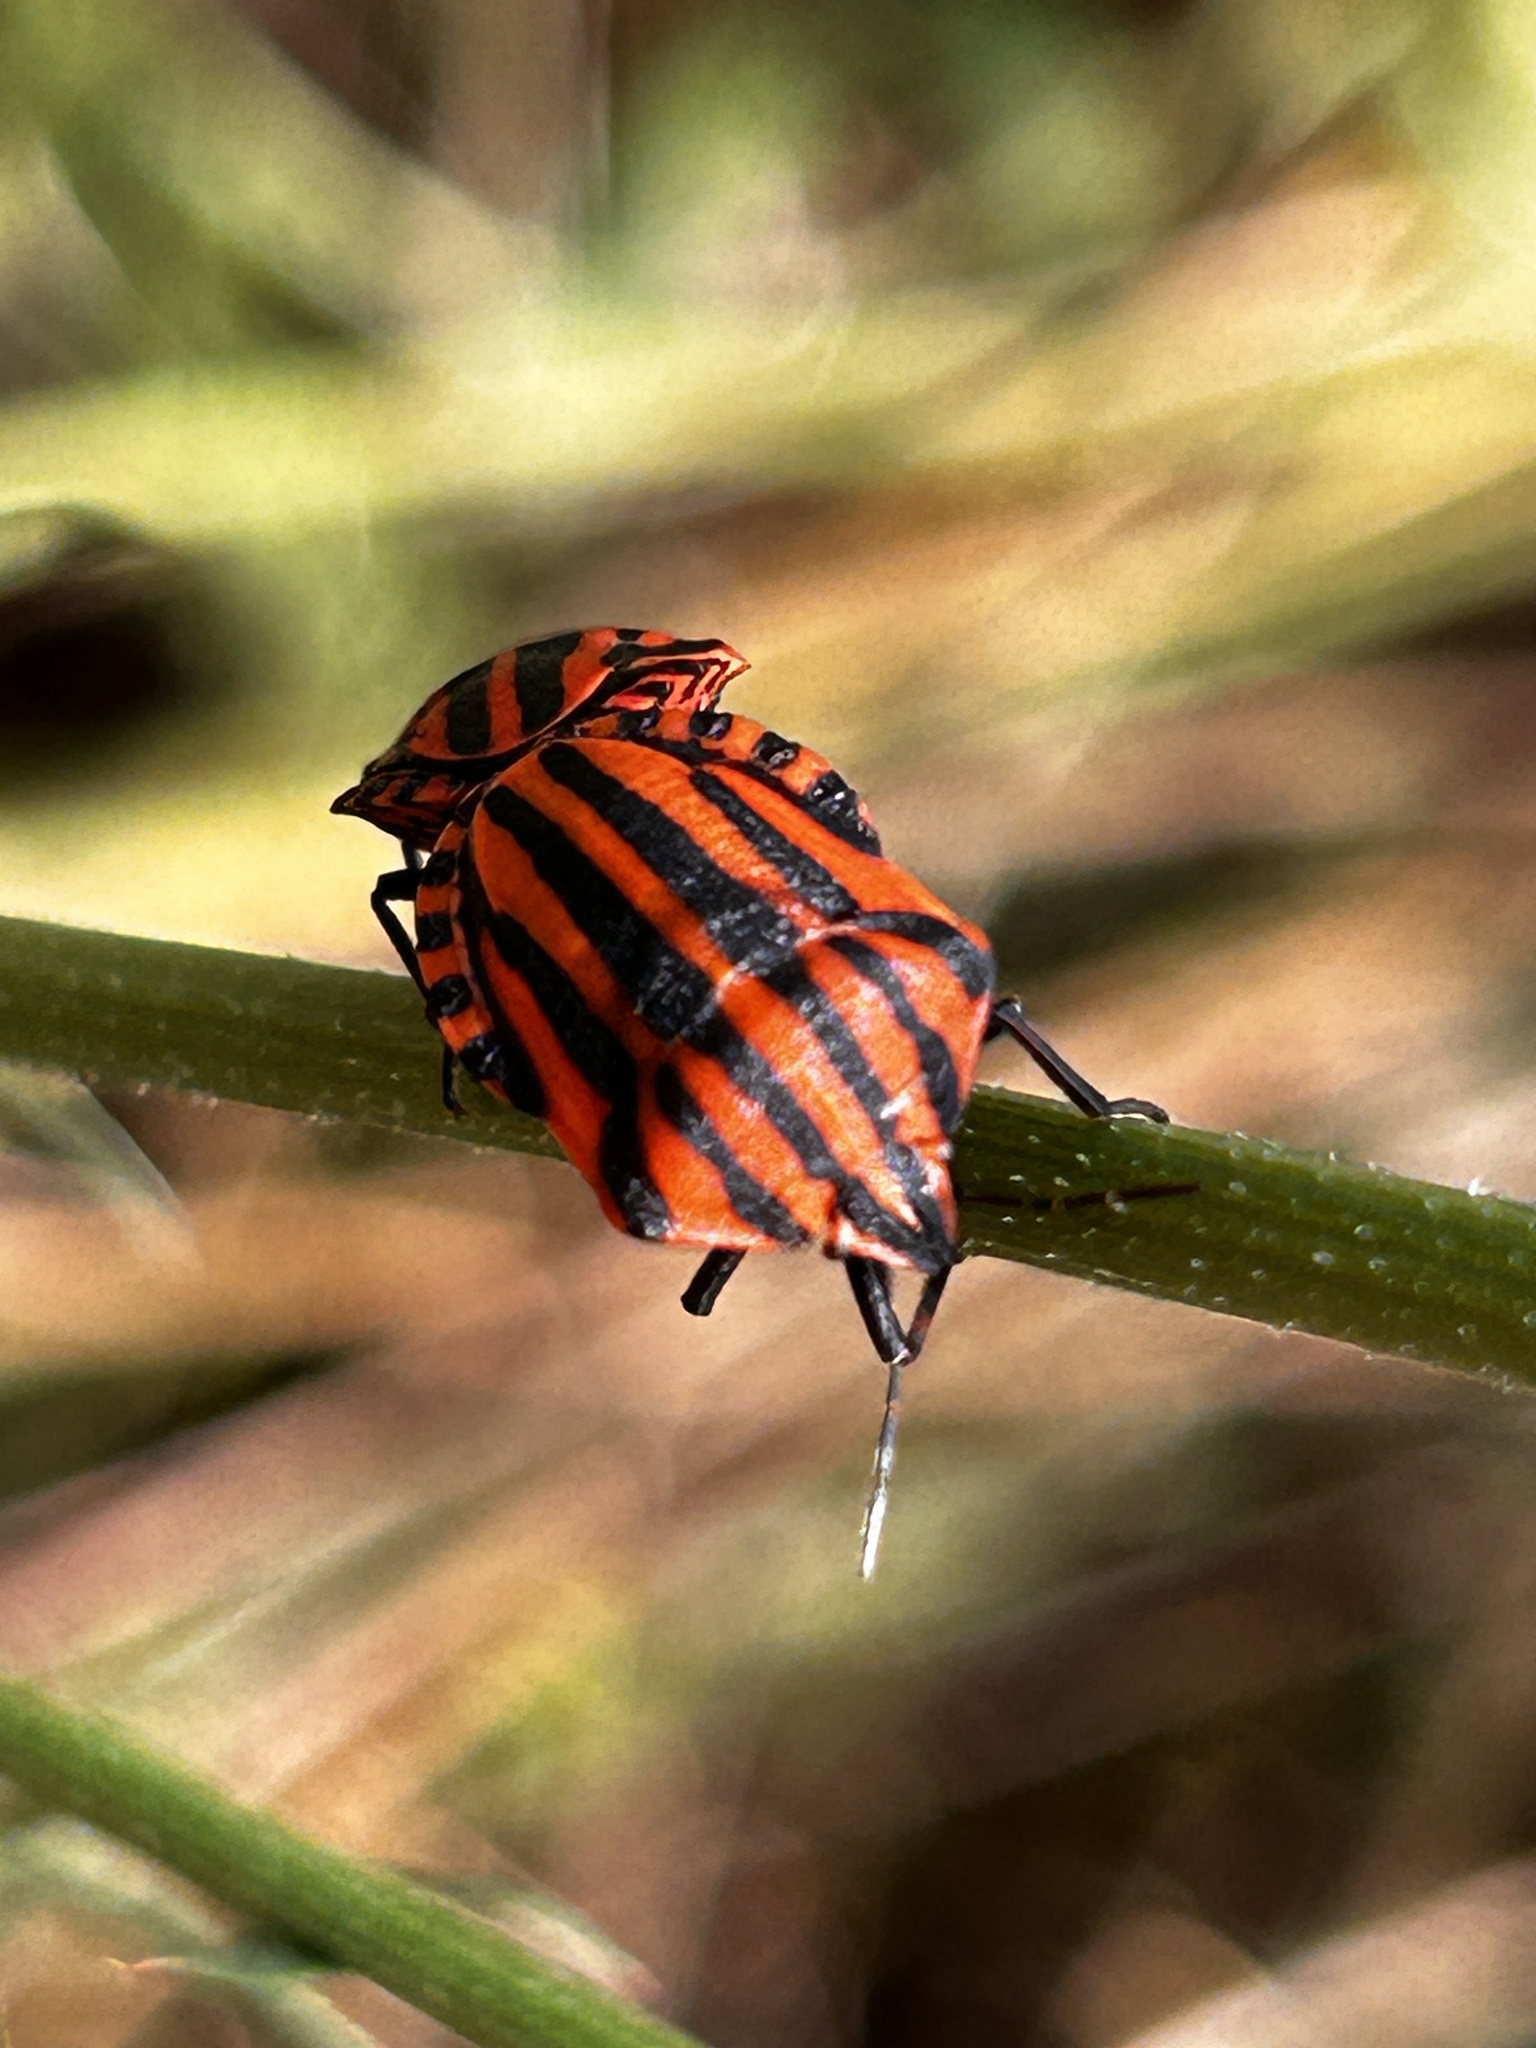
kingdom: Animalia
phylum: Arthropoda
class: Insecta
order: Hemiptera
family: Pentatomidae
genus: Graphosoma
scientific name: Graphosoma italicum
